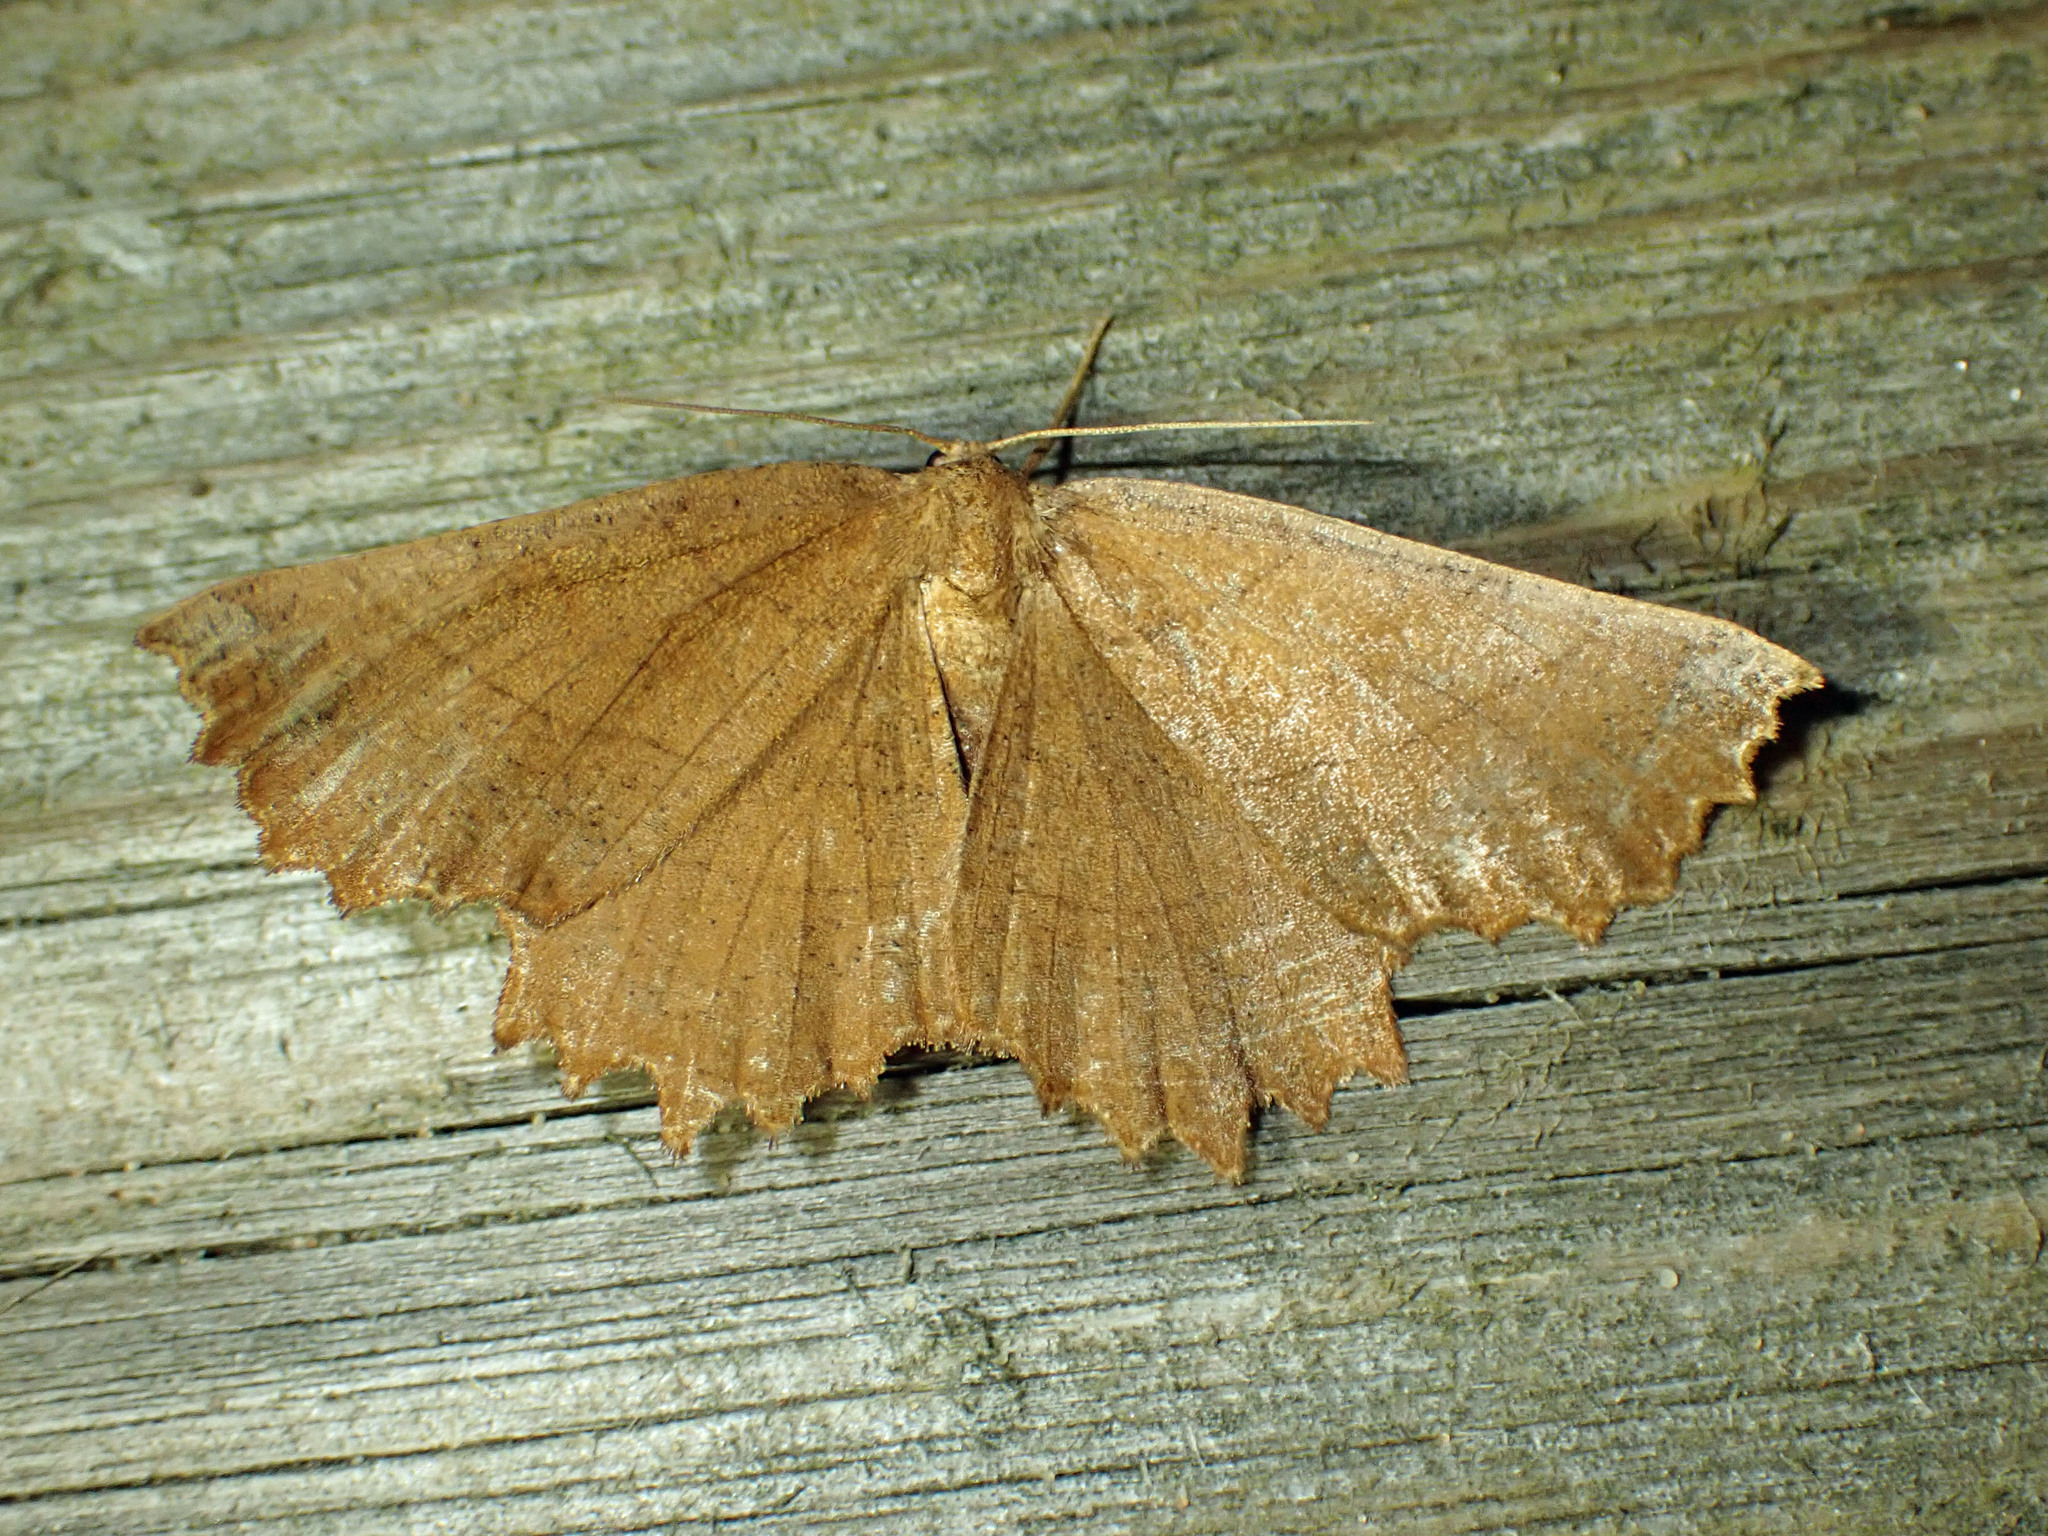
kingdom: Animalia
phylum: Arthropoda
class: Insecta
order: Lepidoptera
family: Geometridae
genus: Euchlaena
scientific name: Euchlaena johnsonaria
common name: Johnson's euchlaena
